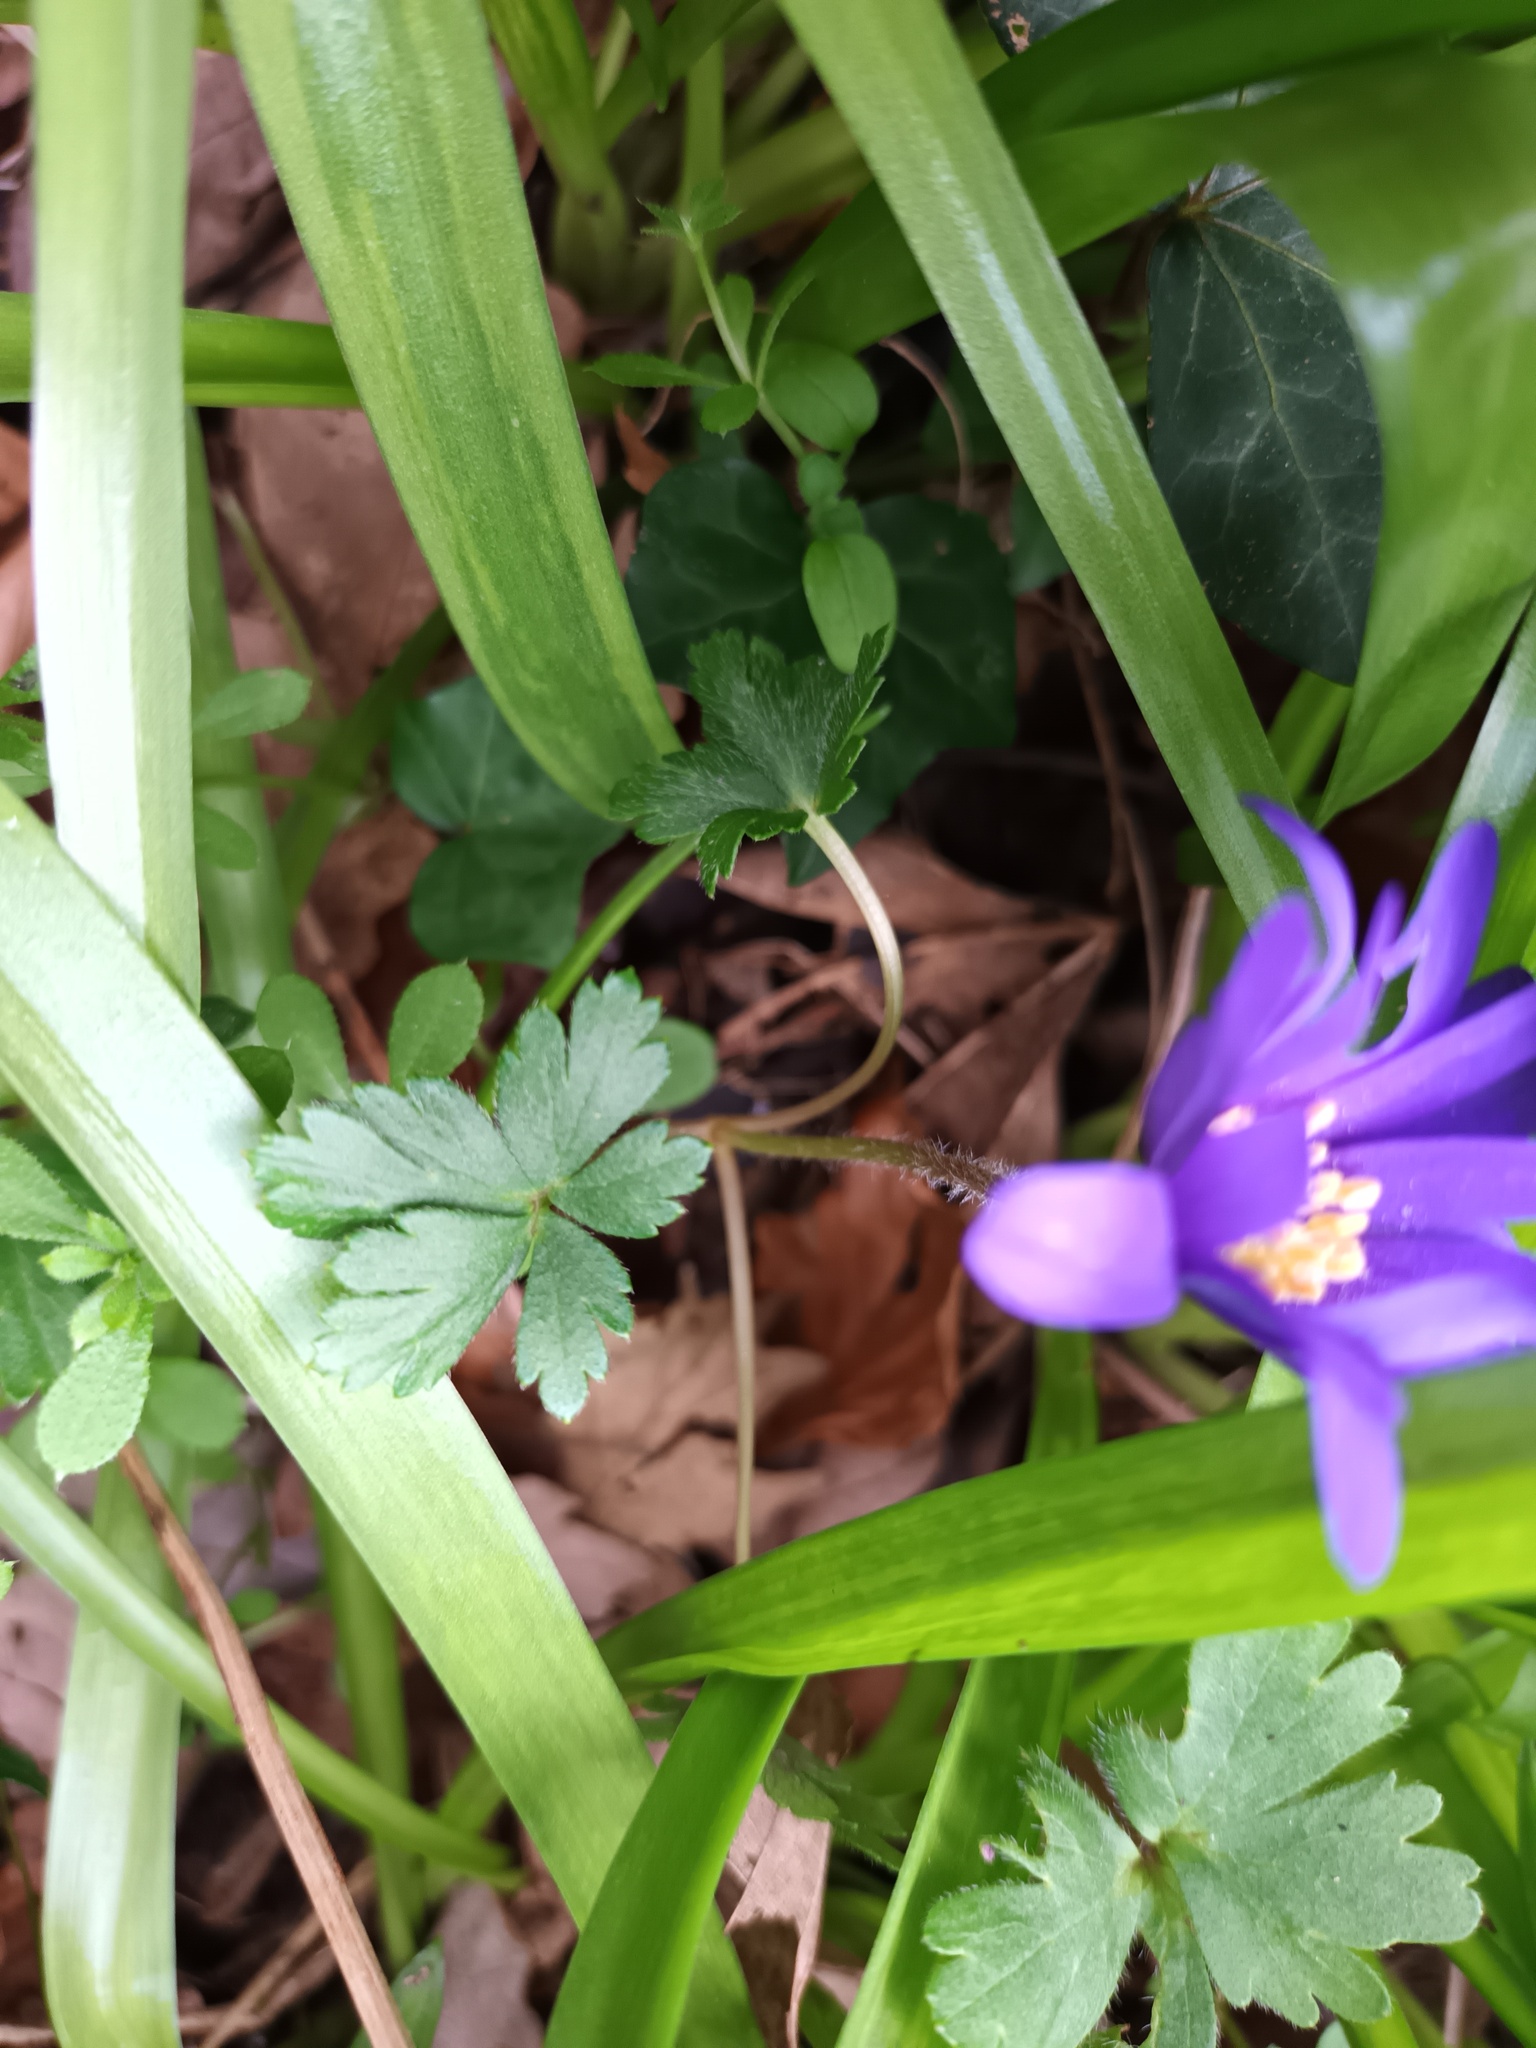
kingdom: Plantae
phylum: Tracheophyta
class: Magnoliopsida
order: Ranunculales
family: Ranunculaceae
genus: Anemone
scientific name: Anemone blanda
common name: Balkan anemone
